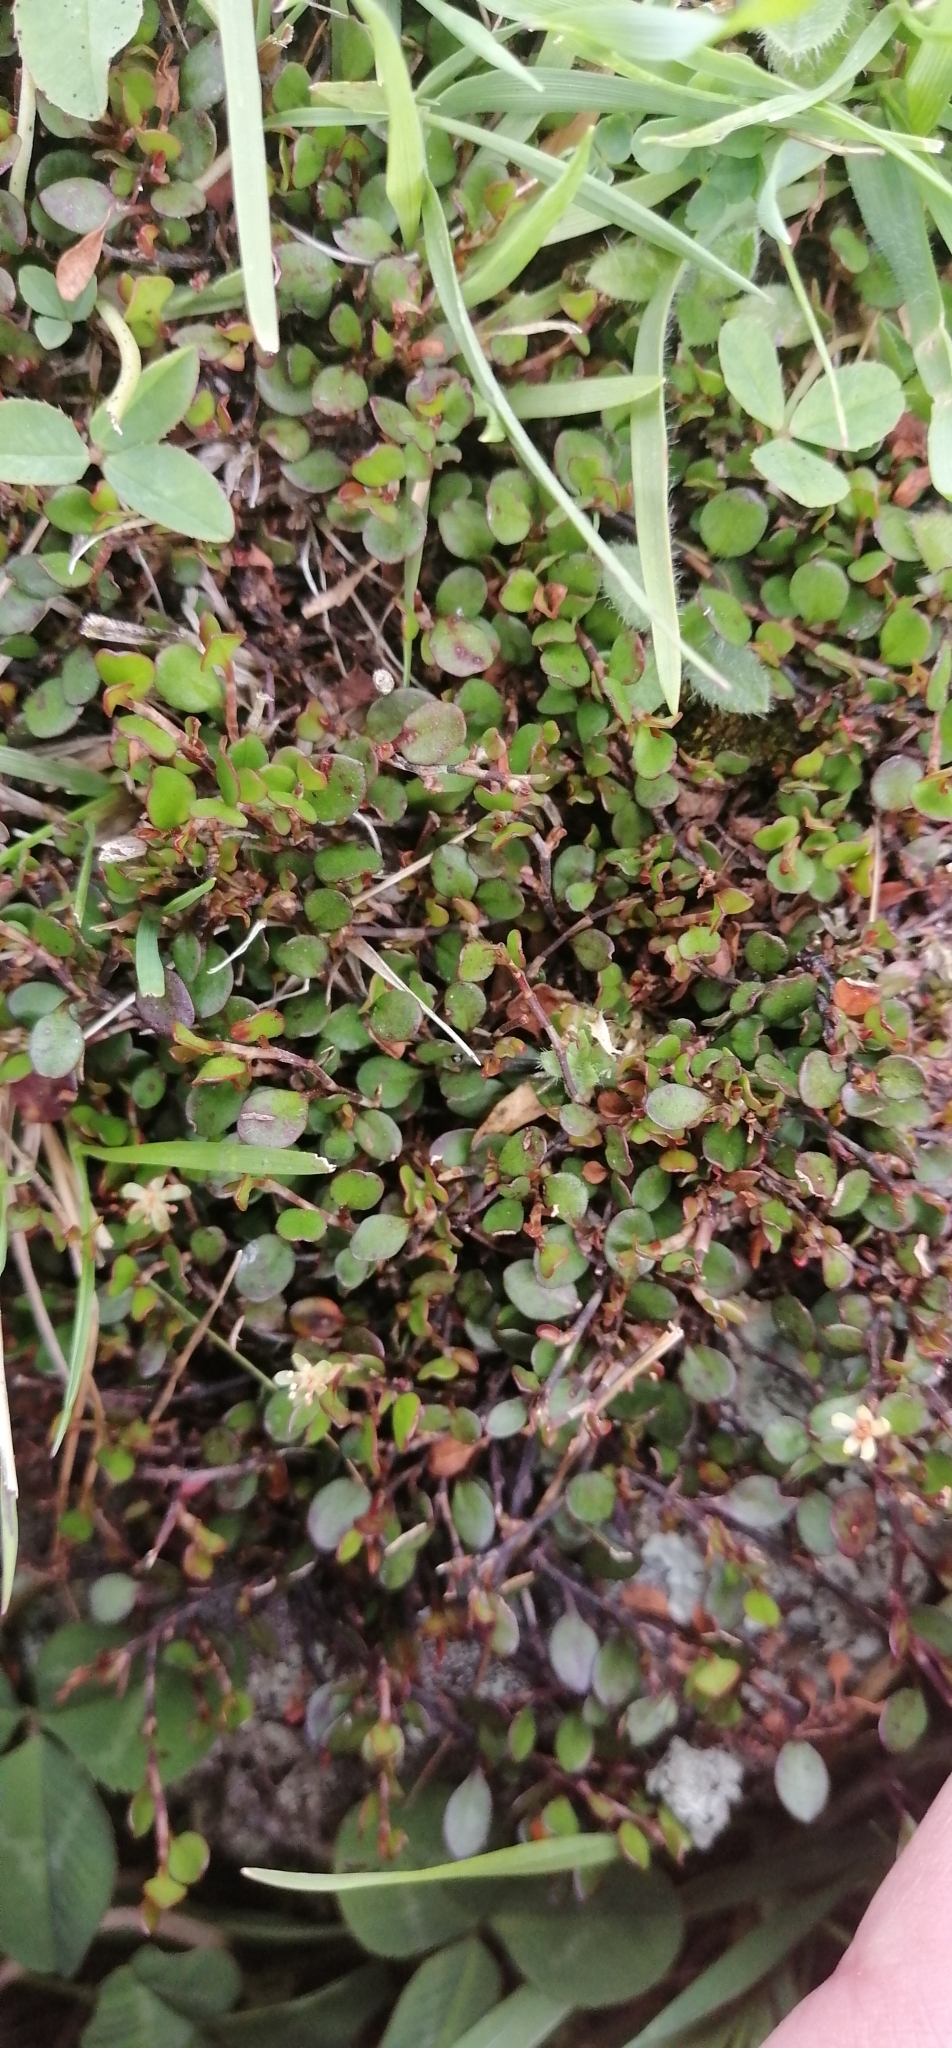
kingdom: Plantae
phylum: Tracheophyta
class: Magnoliopsida
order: Caryophyllales
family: Polygonaceae
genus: Muehlenbeckia
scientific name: Muehlenbeckia axillaris
